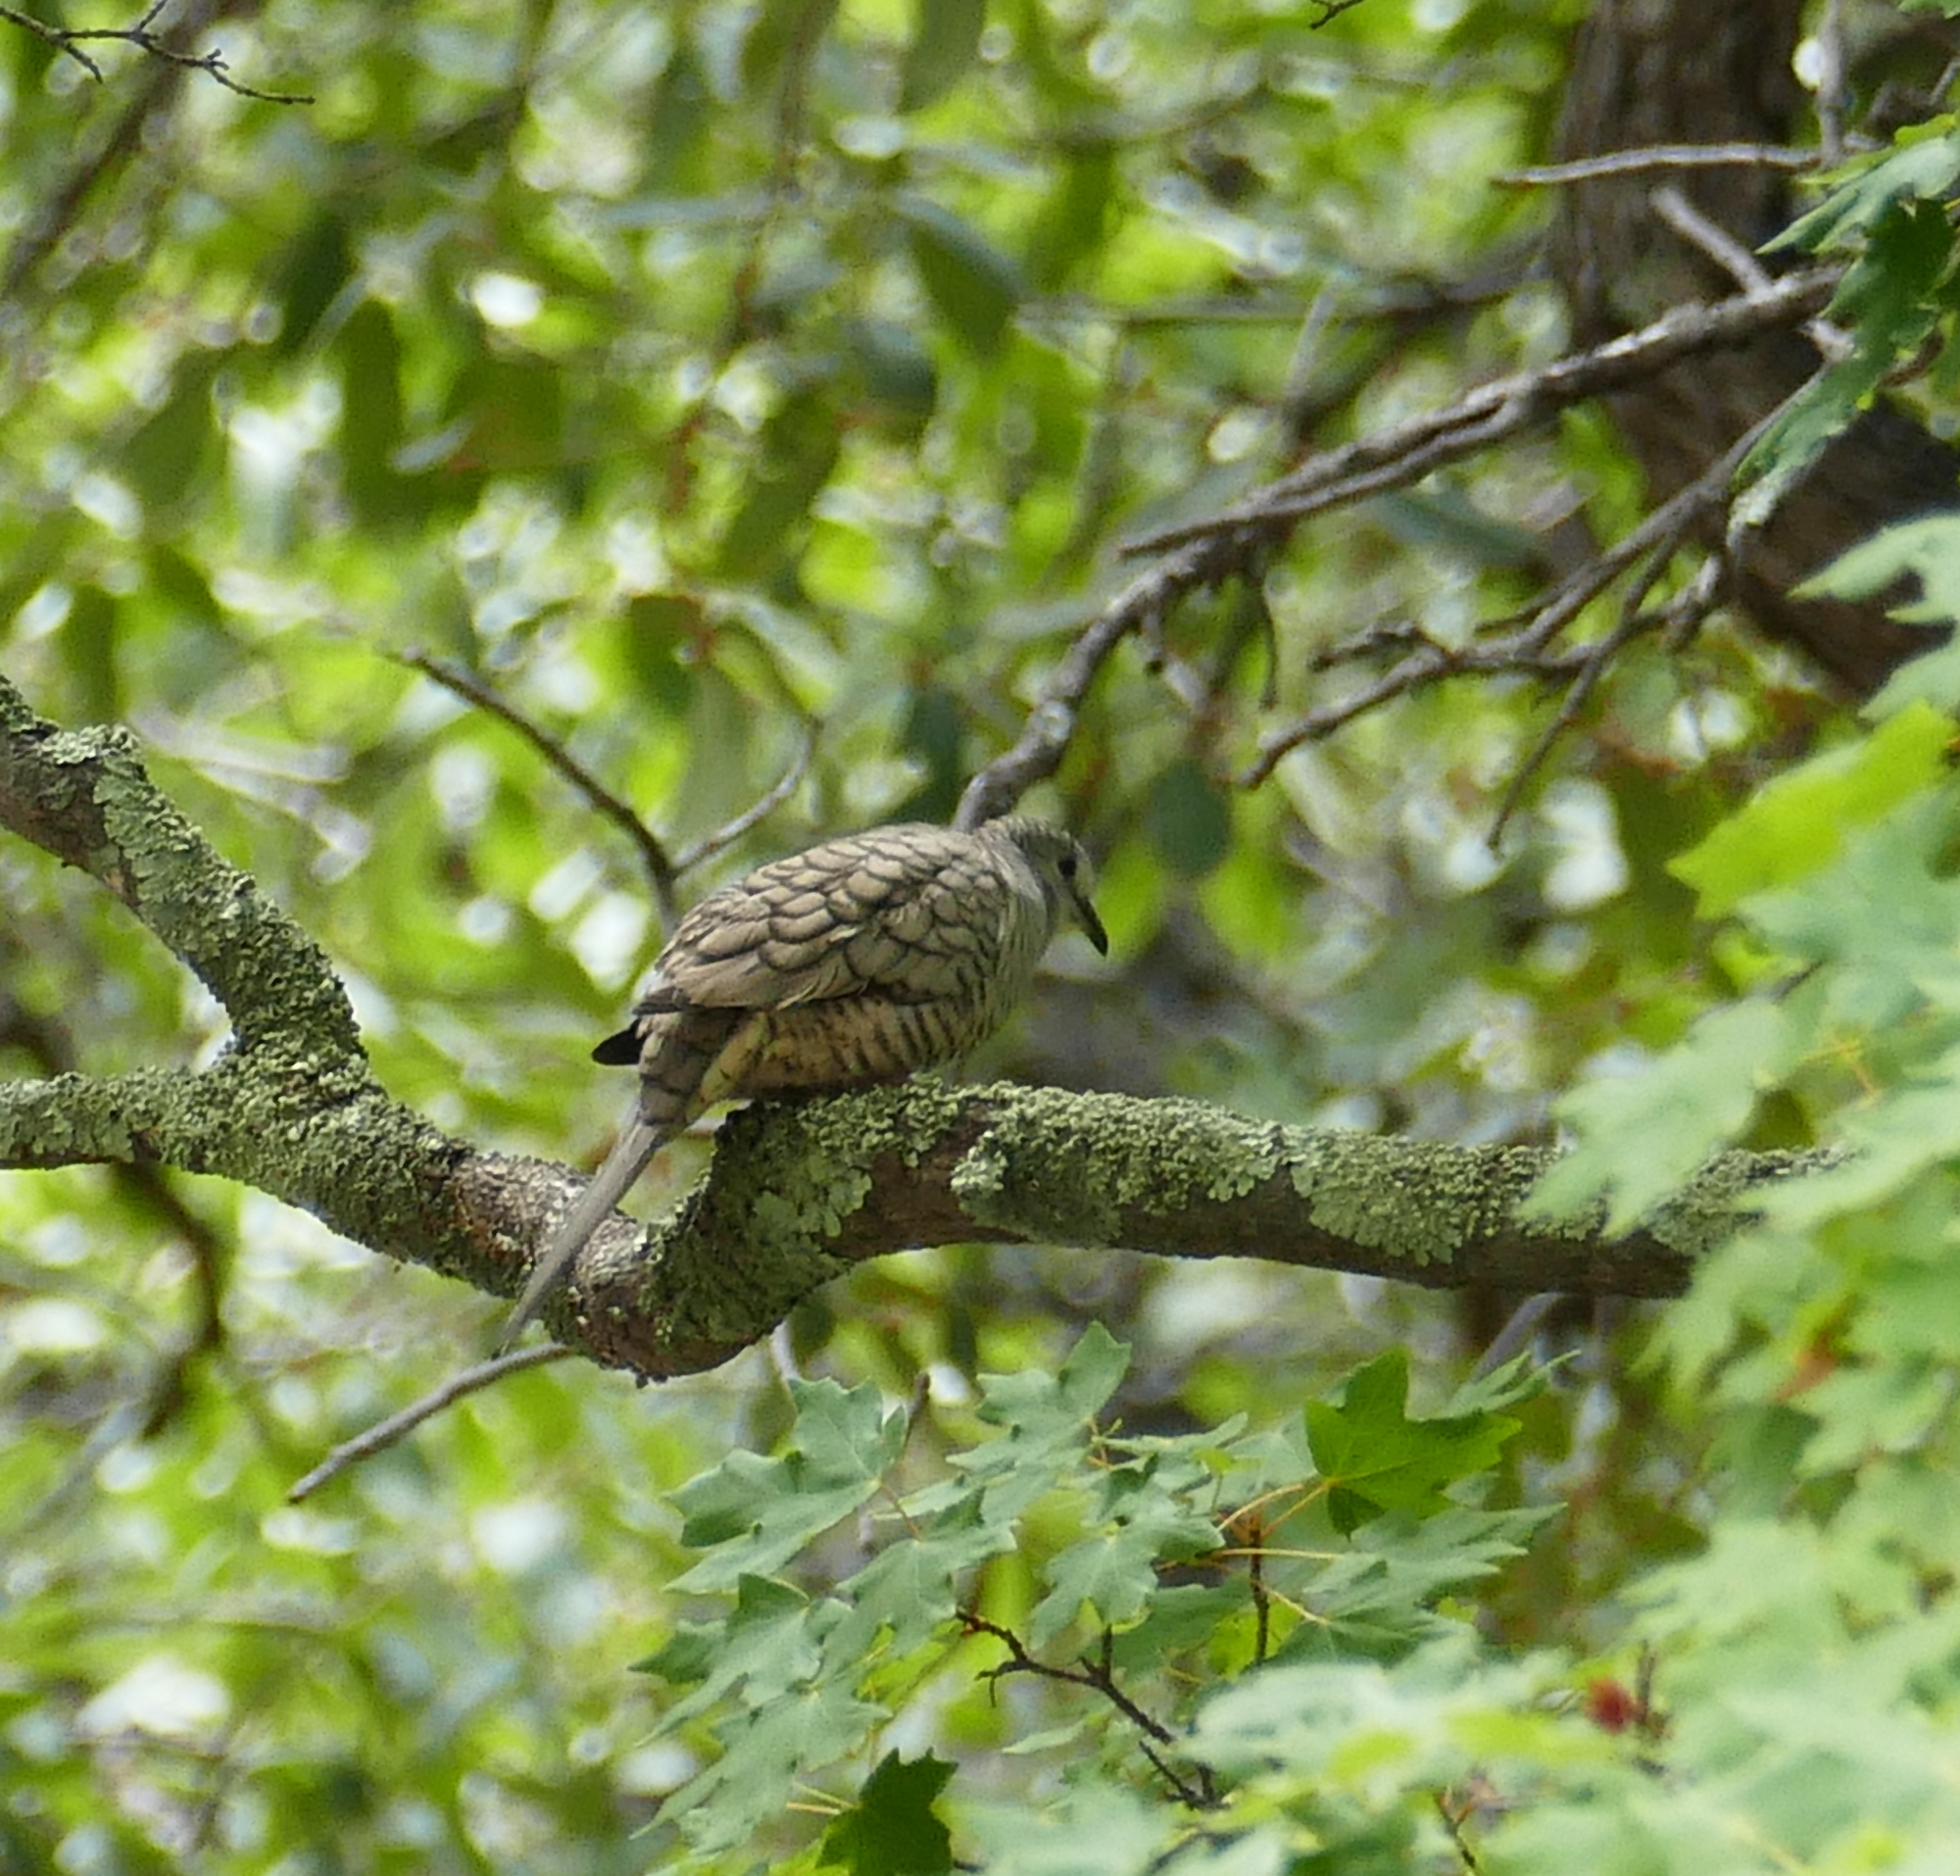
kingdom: Animalia
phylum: Chordata
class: Aves
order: Columbiformes
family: Columbidae
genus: Columbina
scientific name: Columbina inca
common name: Inca dove
